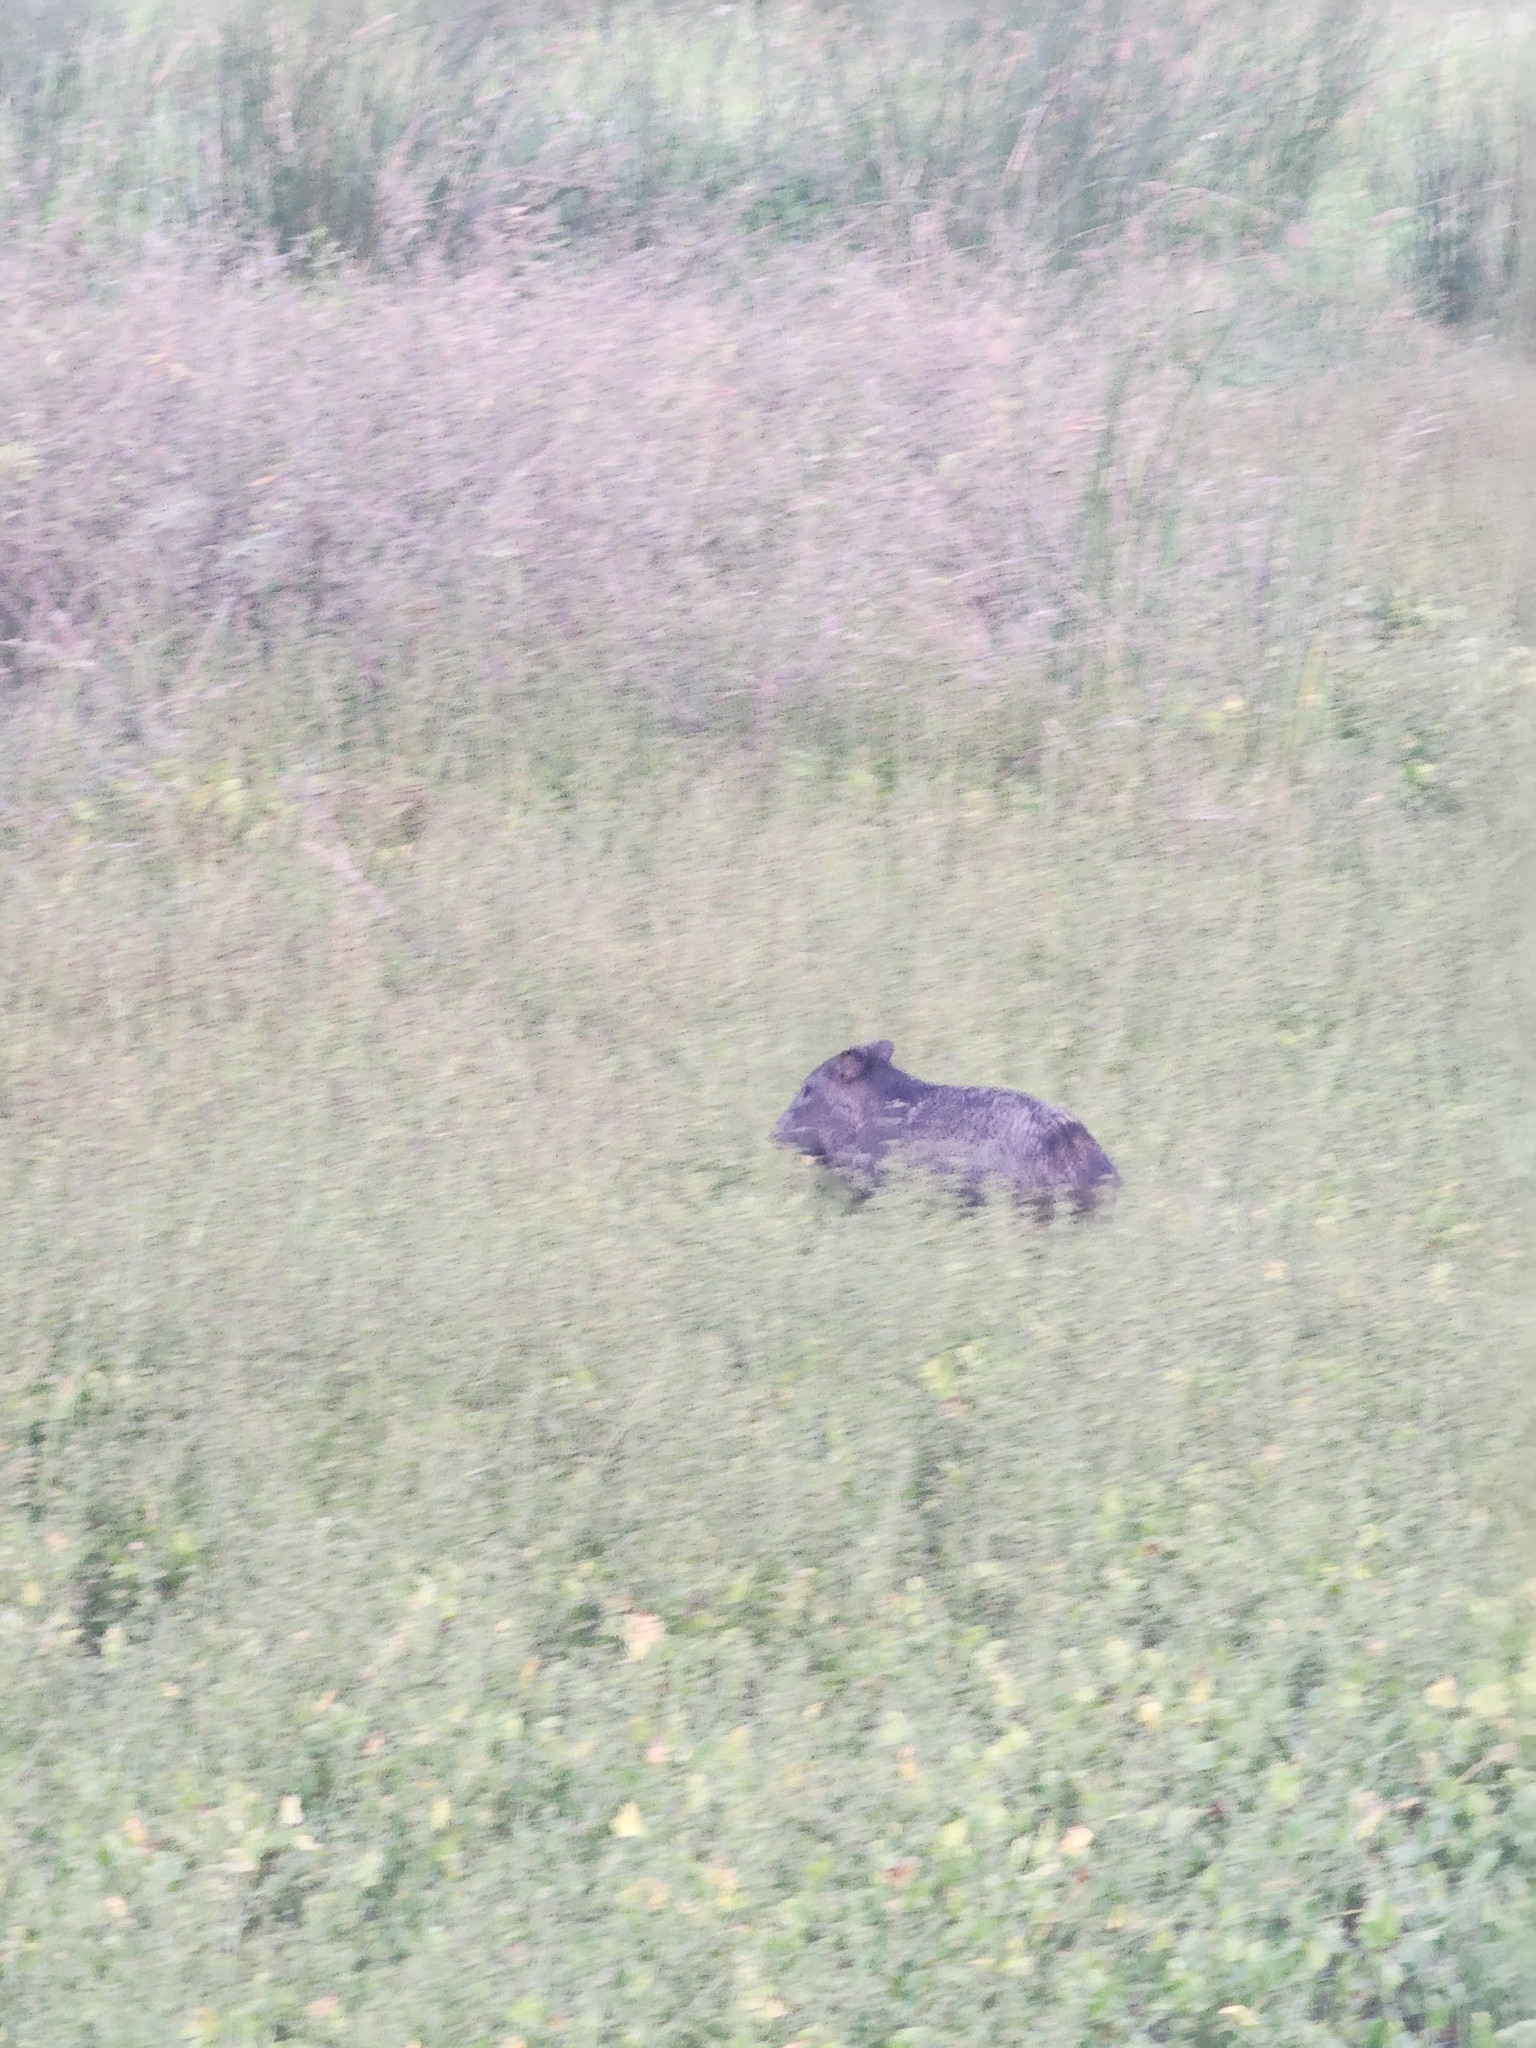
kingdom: Animalia
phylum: Chordata
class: Mammalia
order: Artiodactyla
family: Tayassuidae
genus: Pecari
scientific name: Pecari tajacu
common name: Collared peccary
